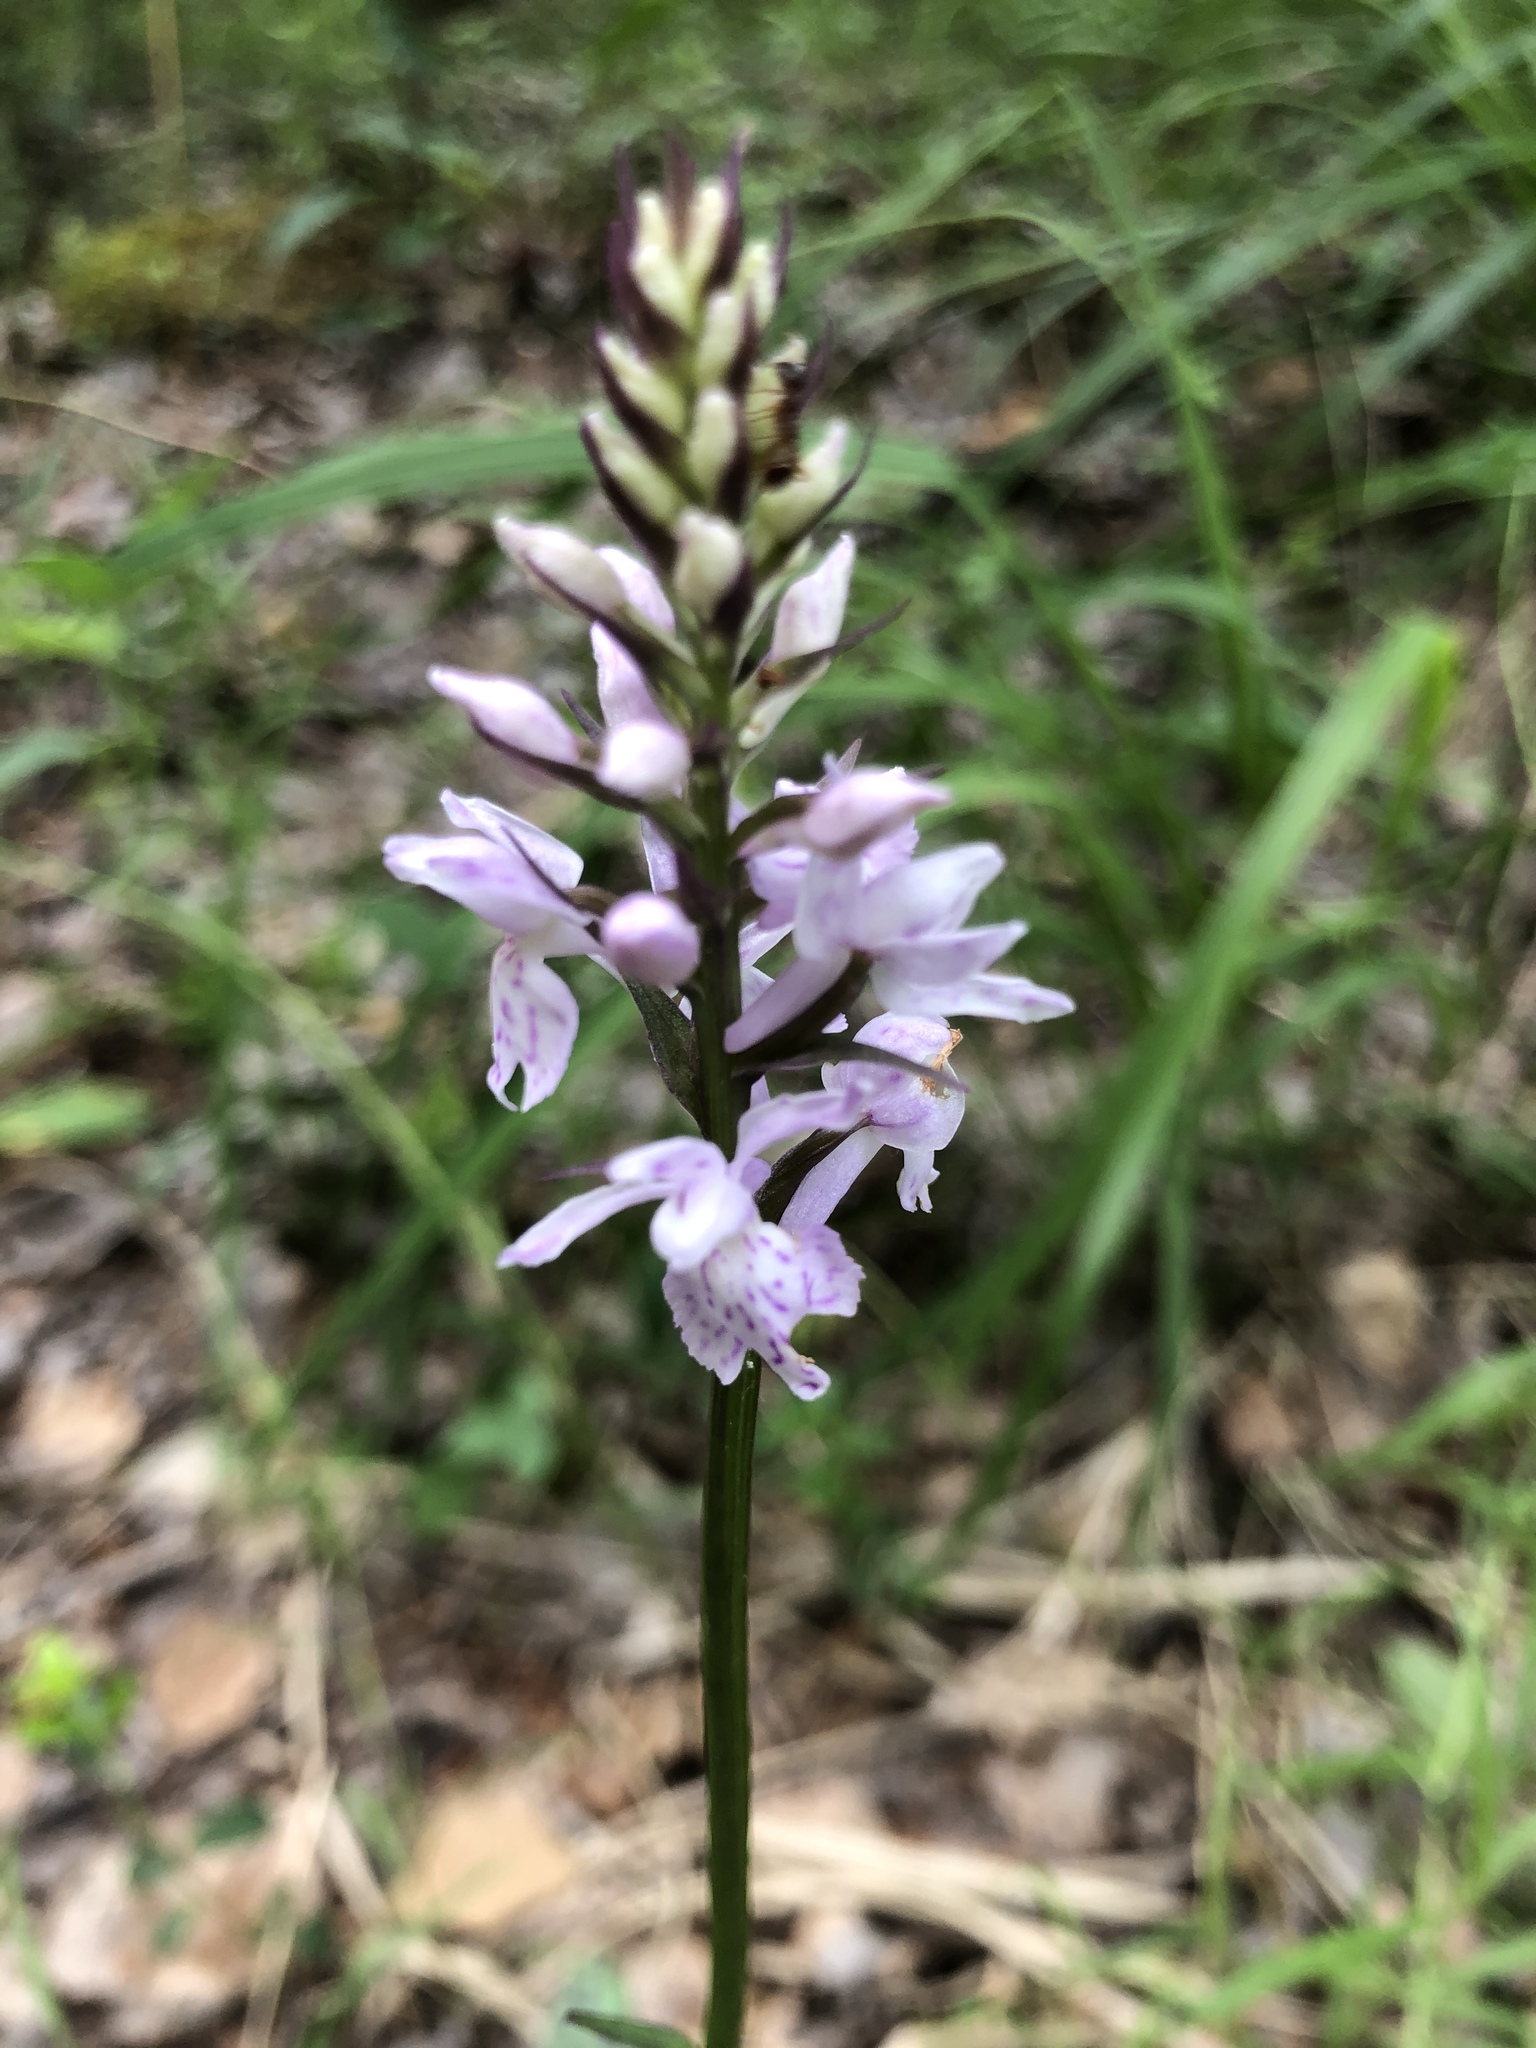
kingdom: Plantae
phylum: Tracheophyta
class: Liliopsida
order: Asparagales
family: Orchidaceae
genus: Dactylorhiza
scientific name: Dactylorhiza maculata
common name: Heath spotted-orchid
